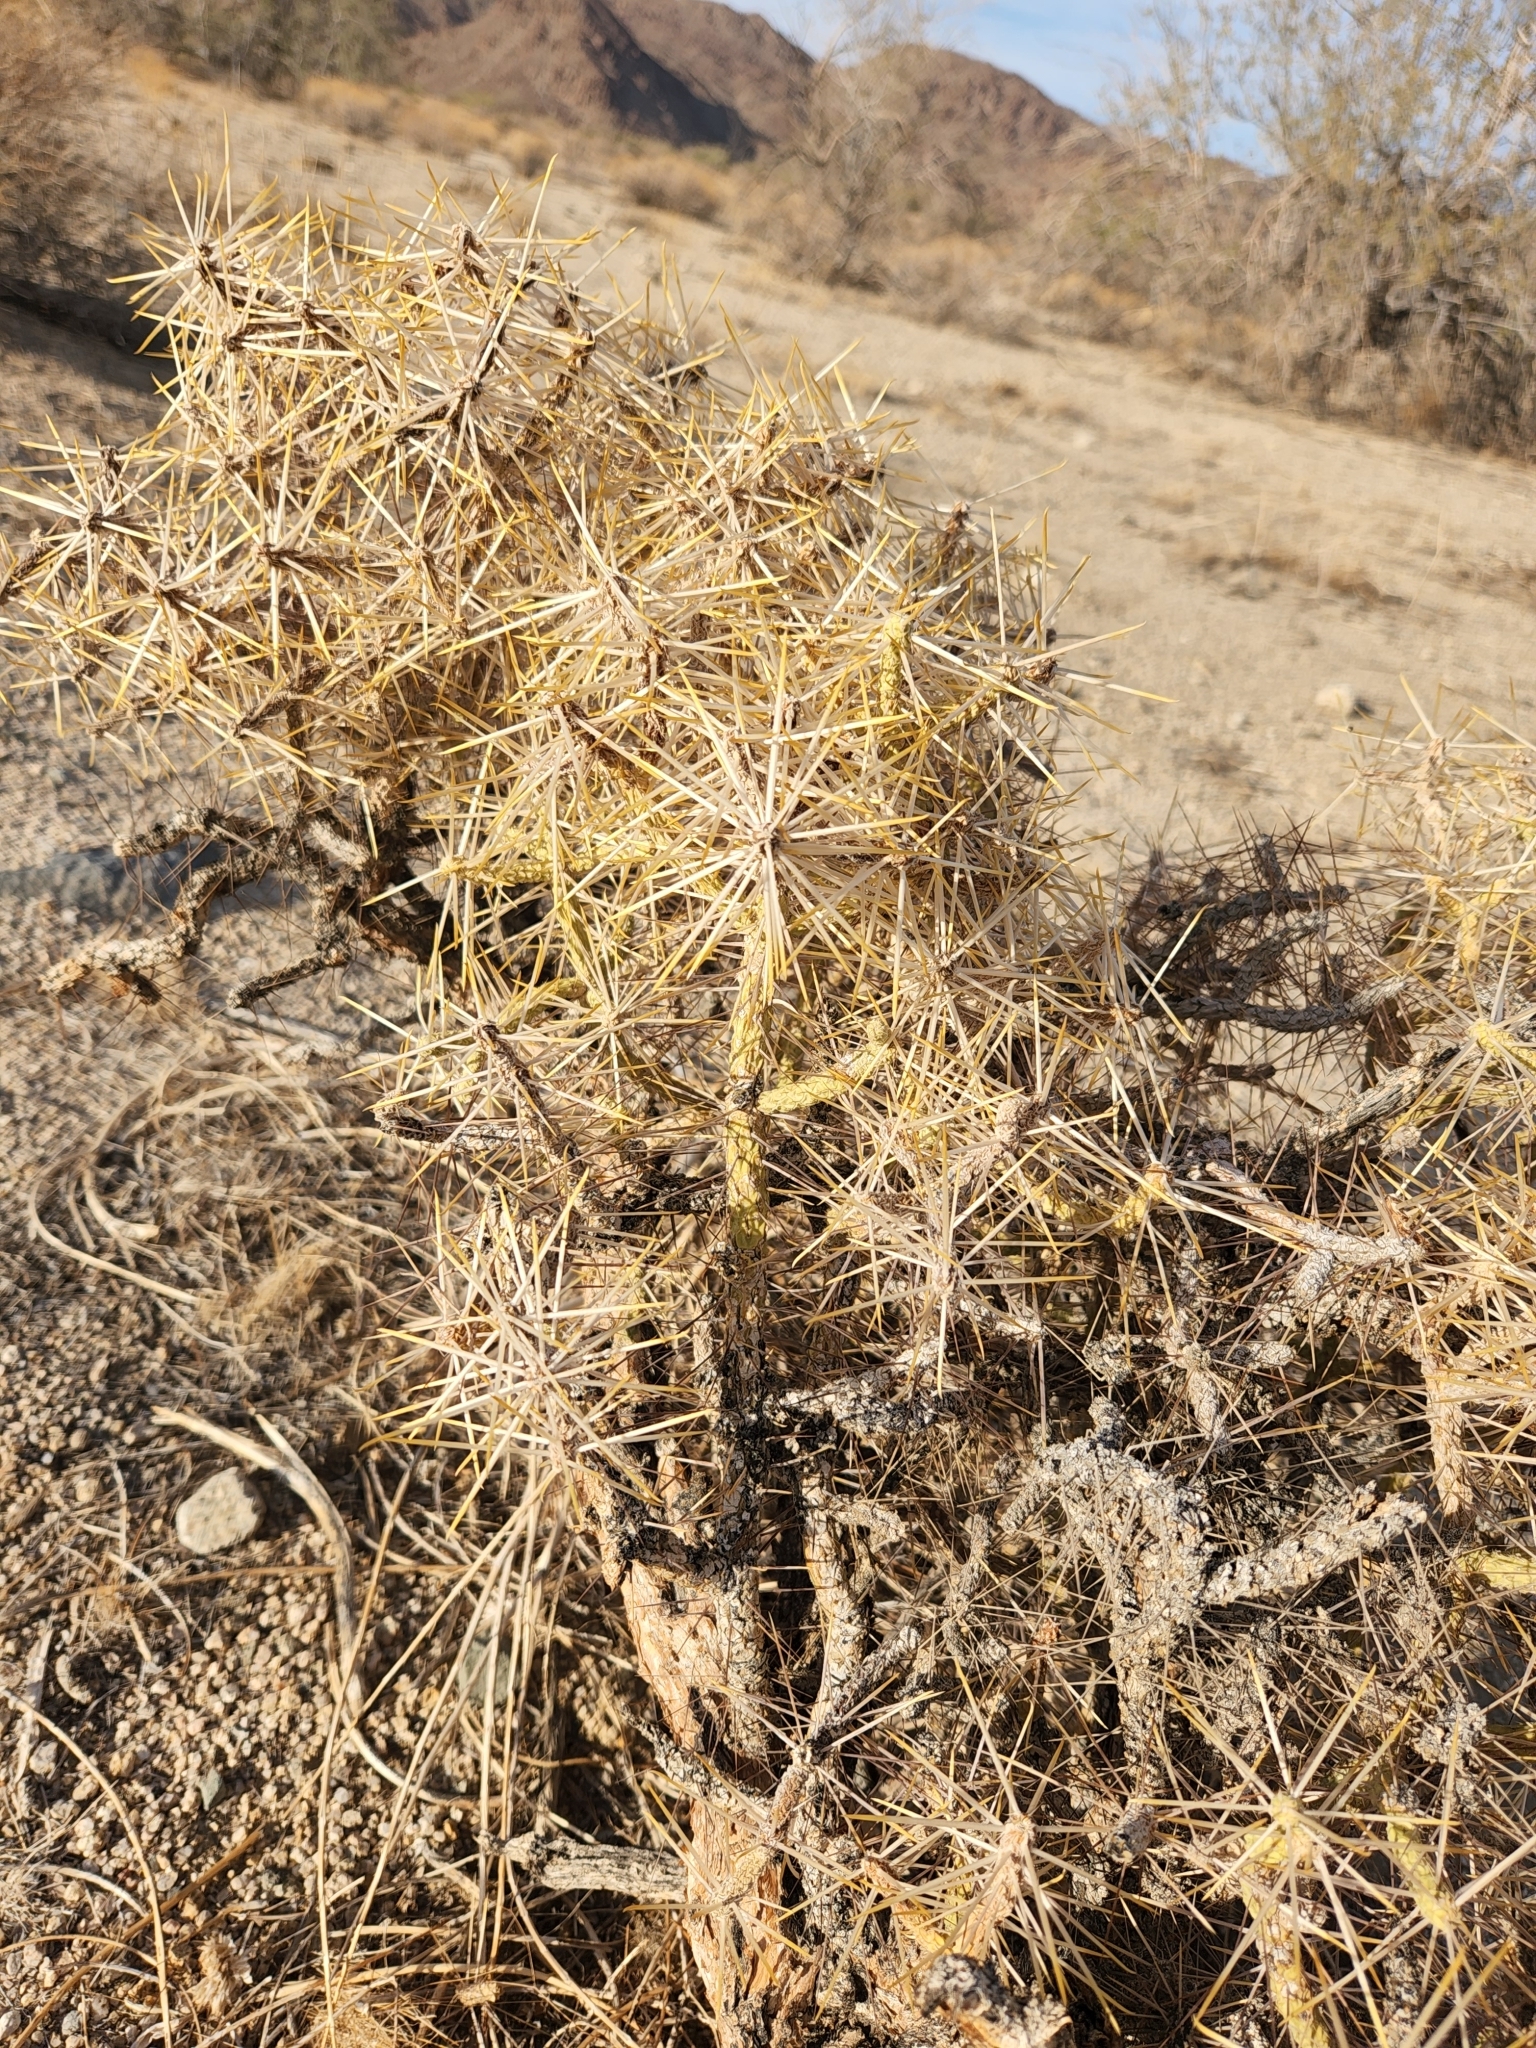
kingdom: Plantae
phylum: Tracheophyta
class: Magnoliopsida
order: Caryophyllales
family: Cactaceae
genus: Cylindropuntia
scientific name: Cylindropuntia ramosissima
